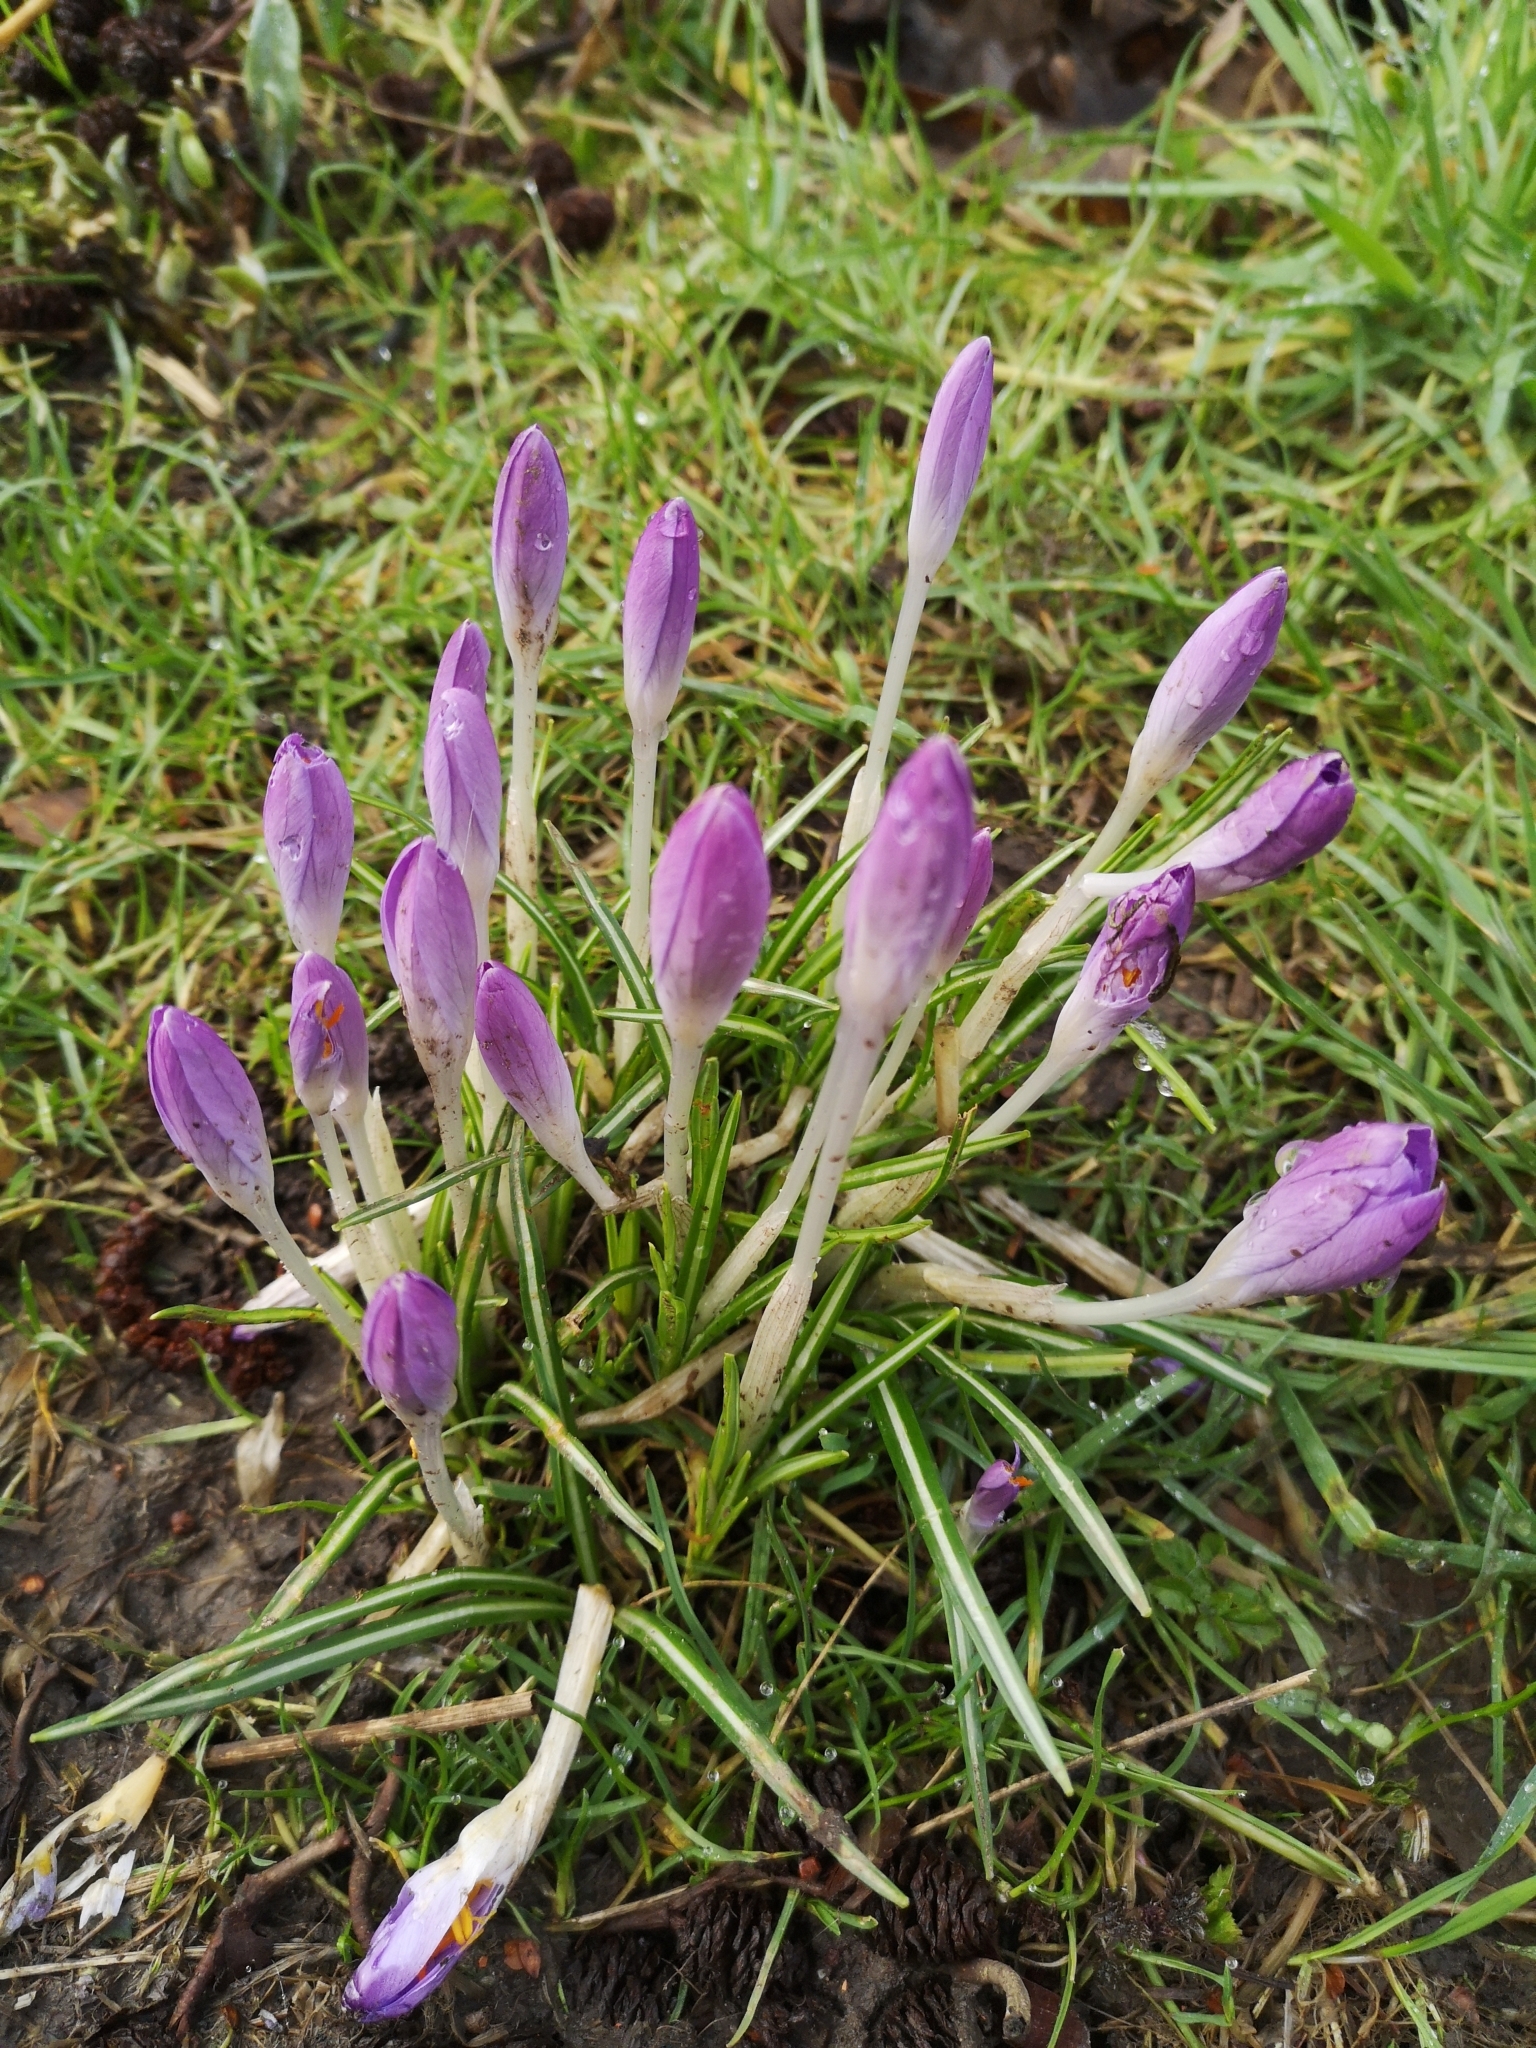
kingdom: Plantae
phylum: Tracheophyta
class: Liliopsida
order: Asparagales
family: Iridaceae
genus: Crocus
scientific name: Crocus tommasinianus
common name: Early crocus
